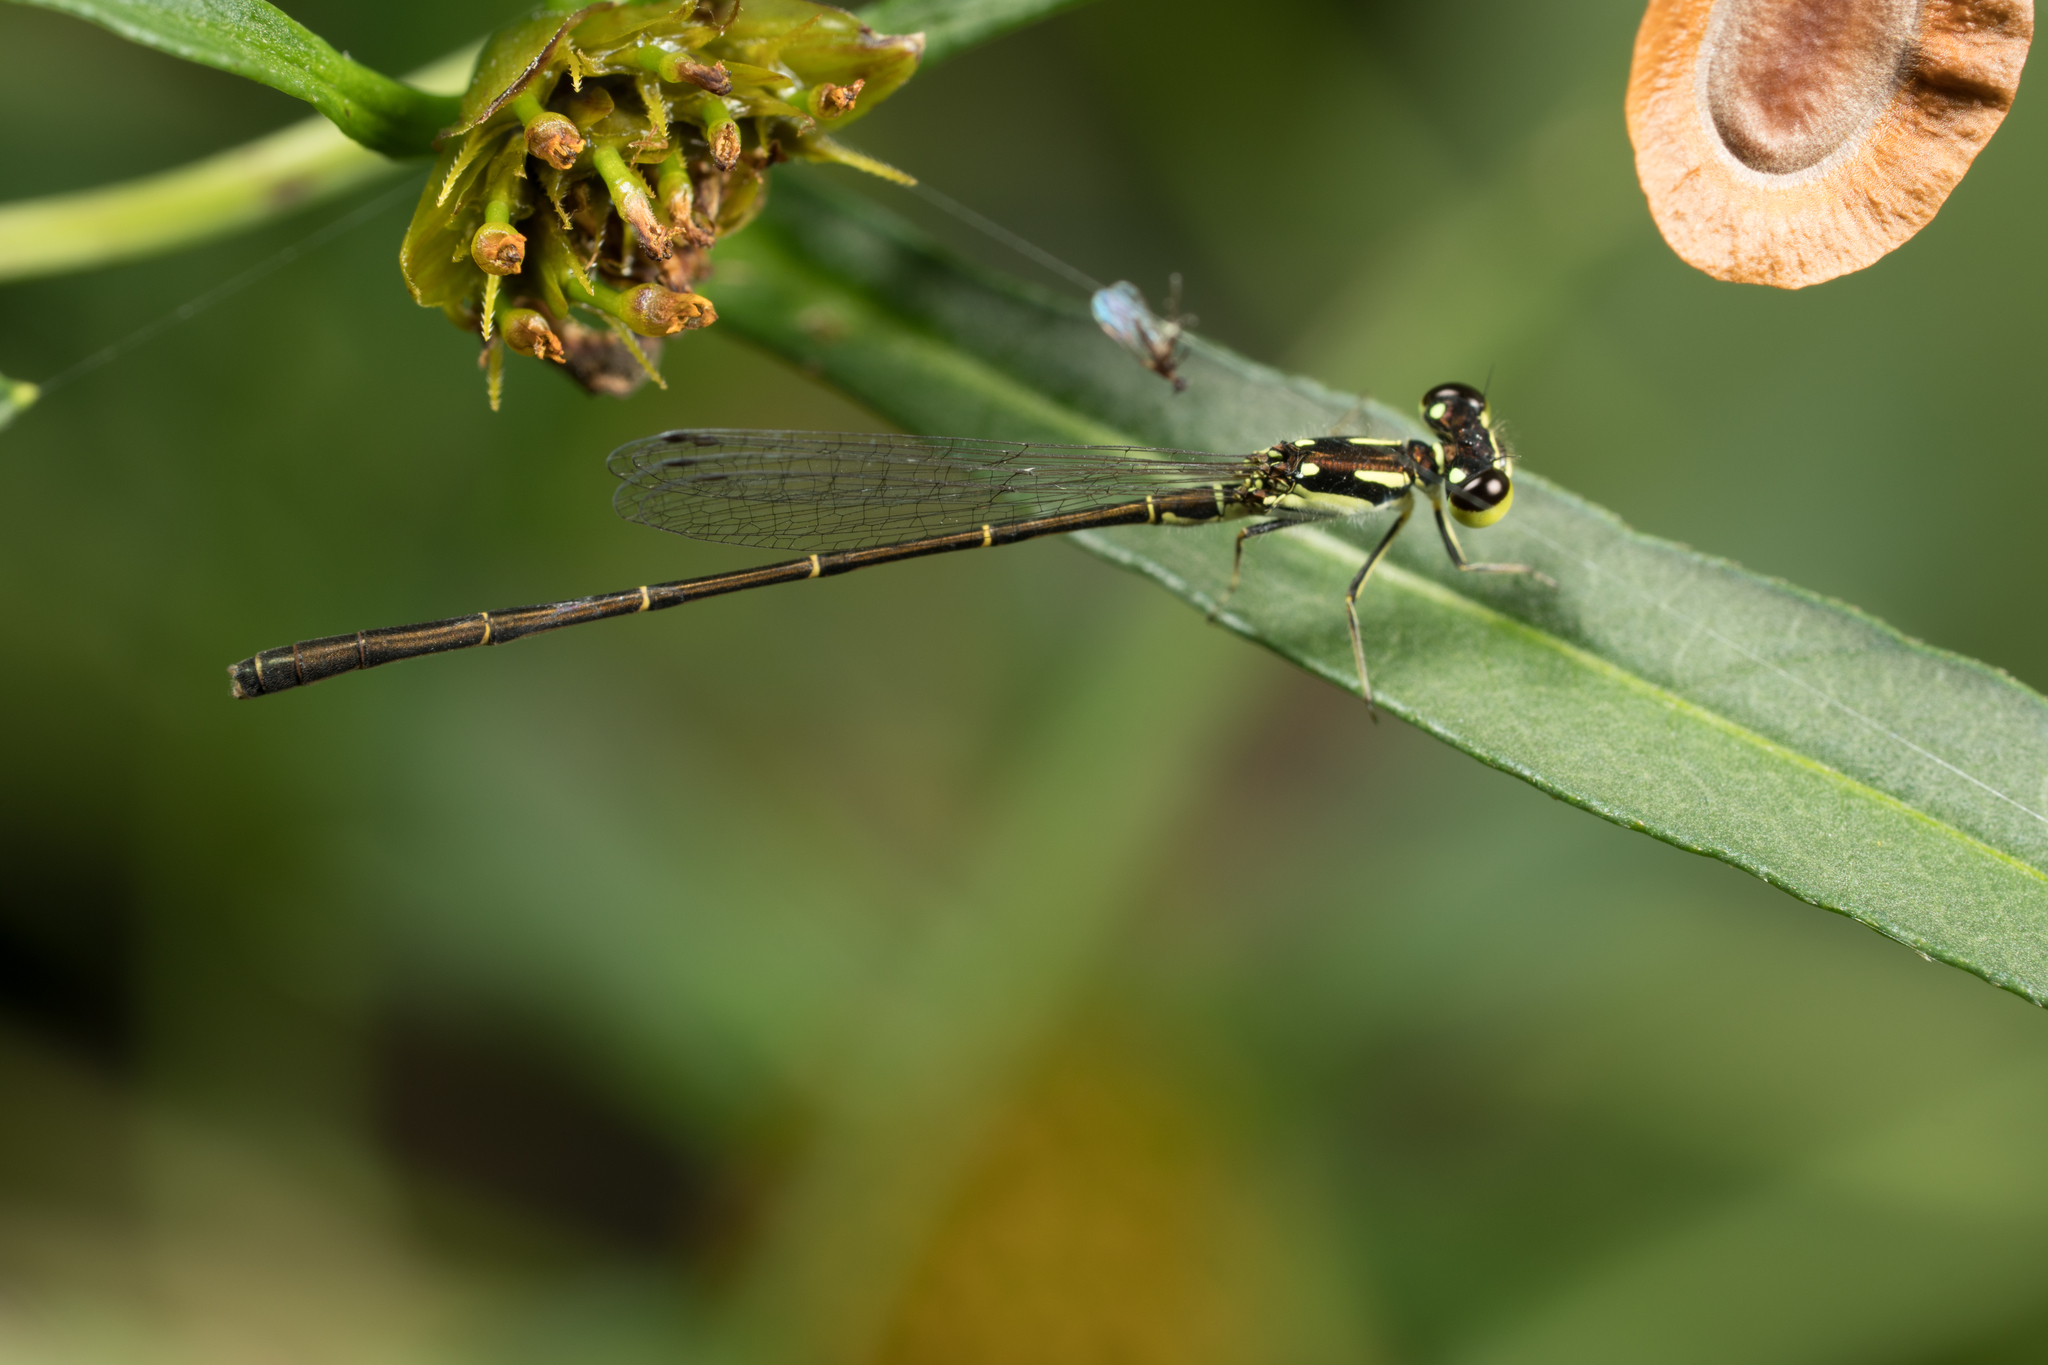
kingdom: Animalia
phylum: Arthropoda
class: Insecta
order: Odonata
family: Coenagrionidae
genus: Ischnura
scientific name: Ischnura posita
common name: Fragile forktail
